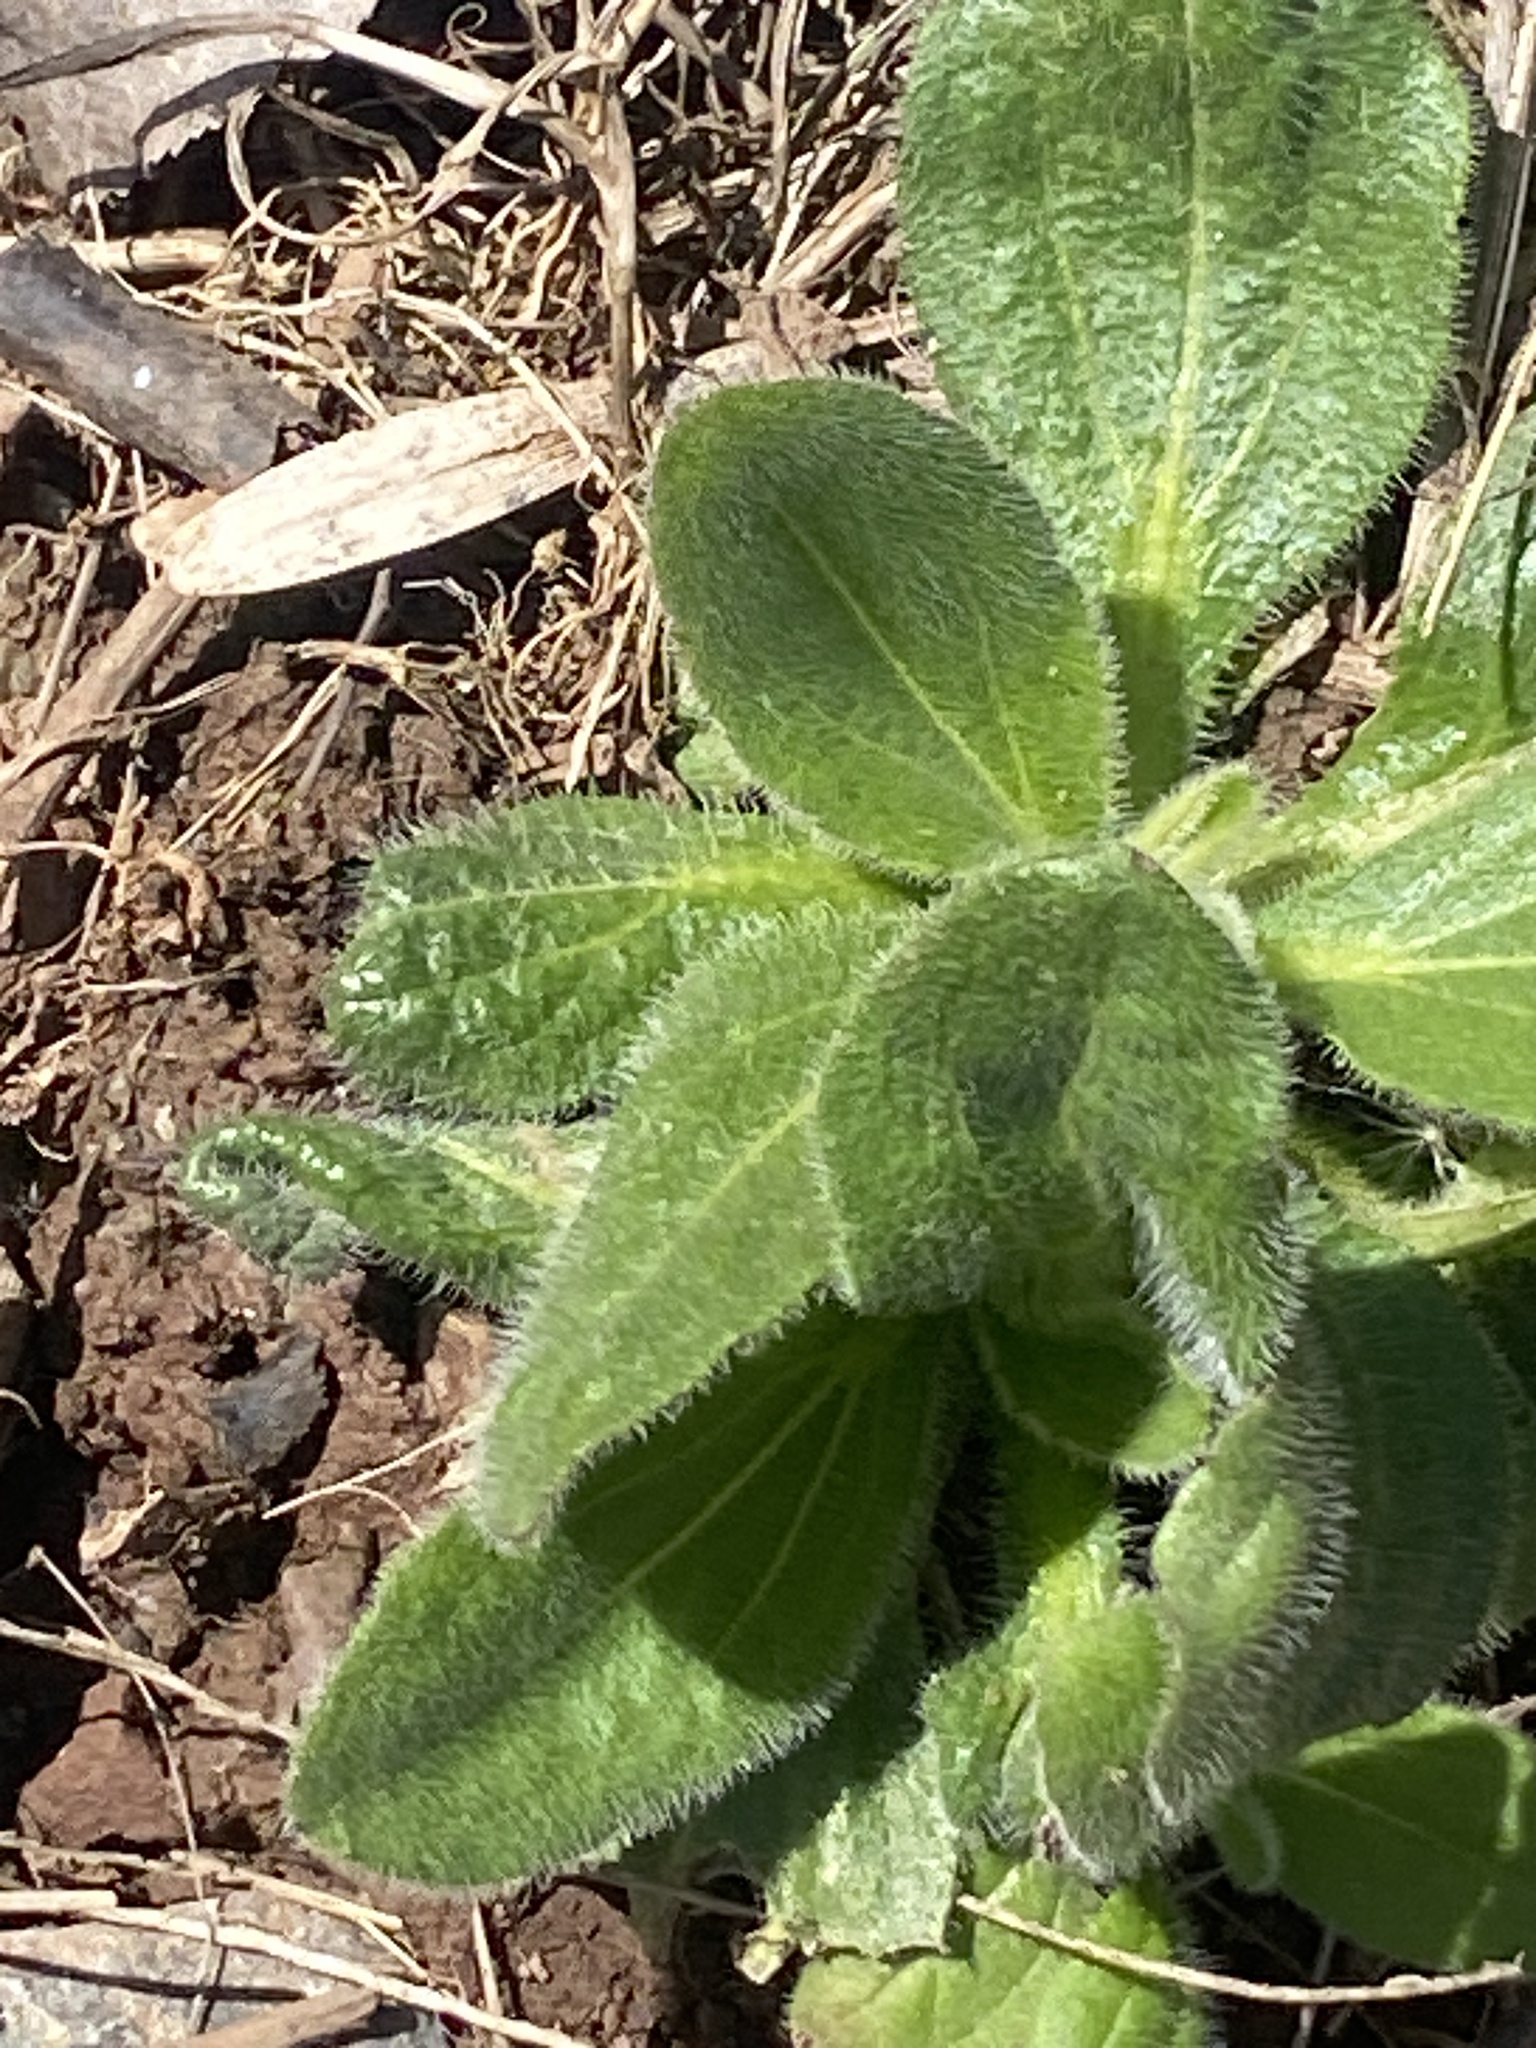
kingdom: Plantae
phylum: Tracheophyta
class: Magnoliopsida
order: Asterales
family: Asteraceae
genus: Rudbeckia
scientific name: Rudbeckia hirta
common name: Black-eyed-susan
